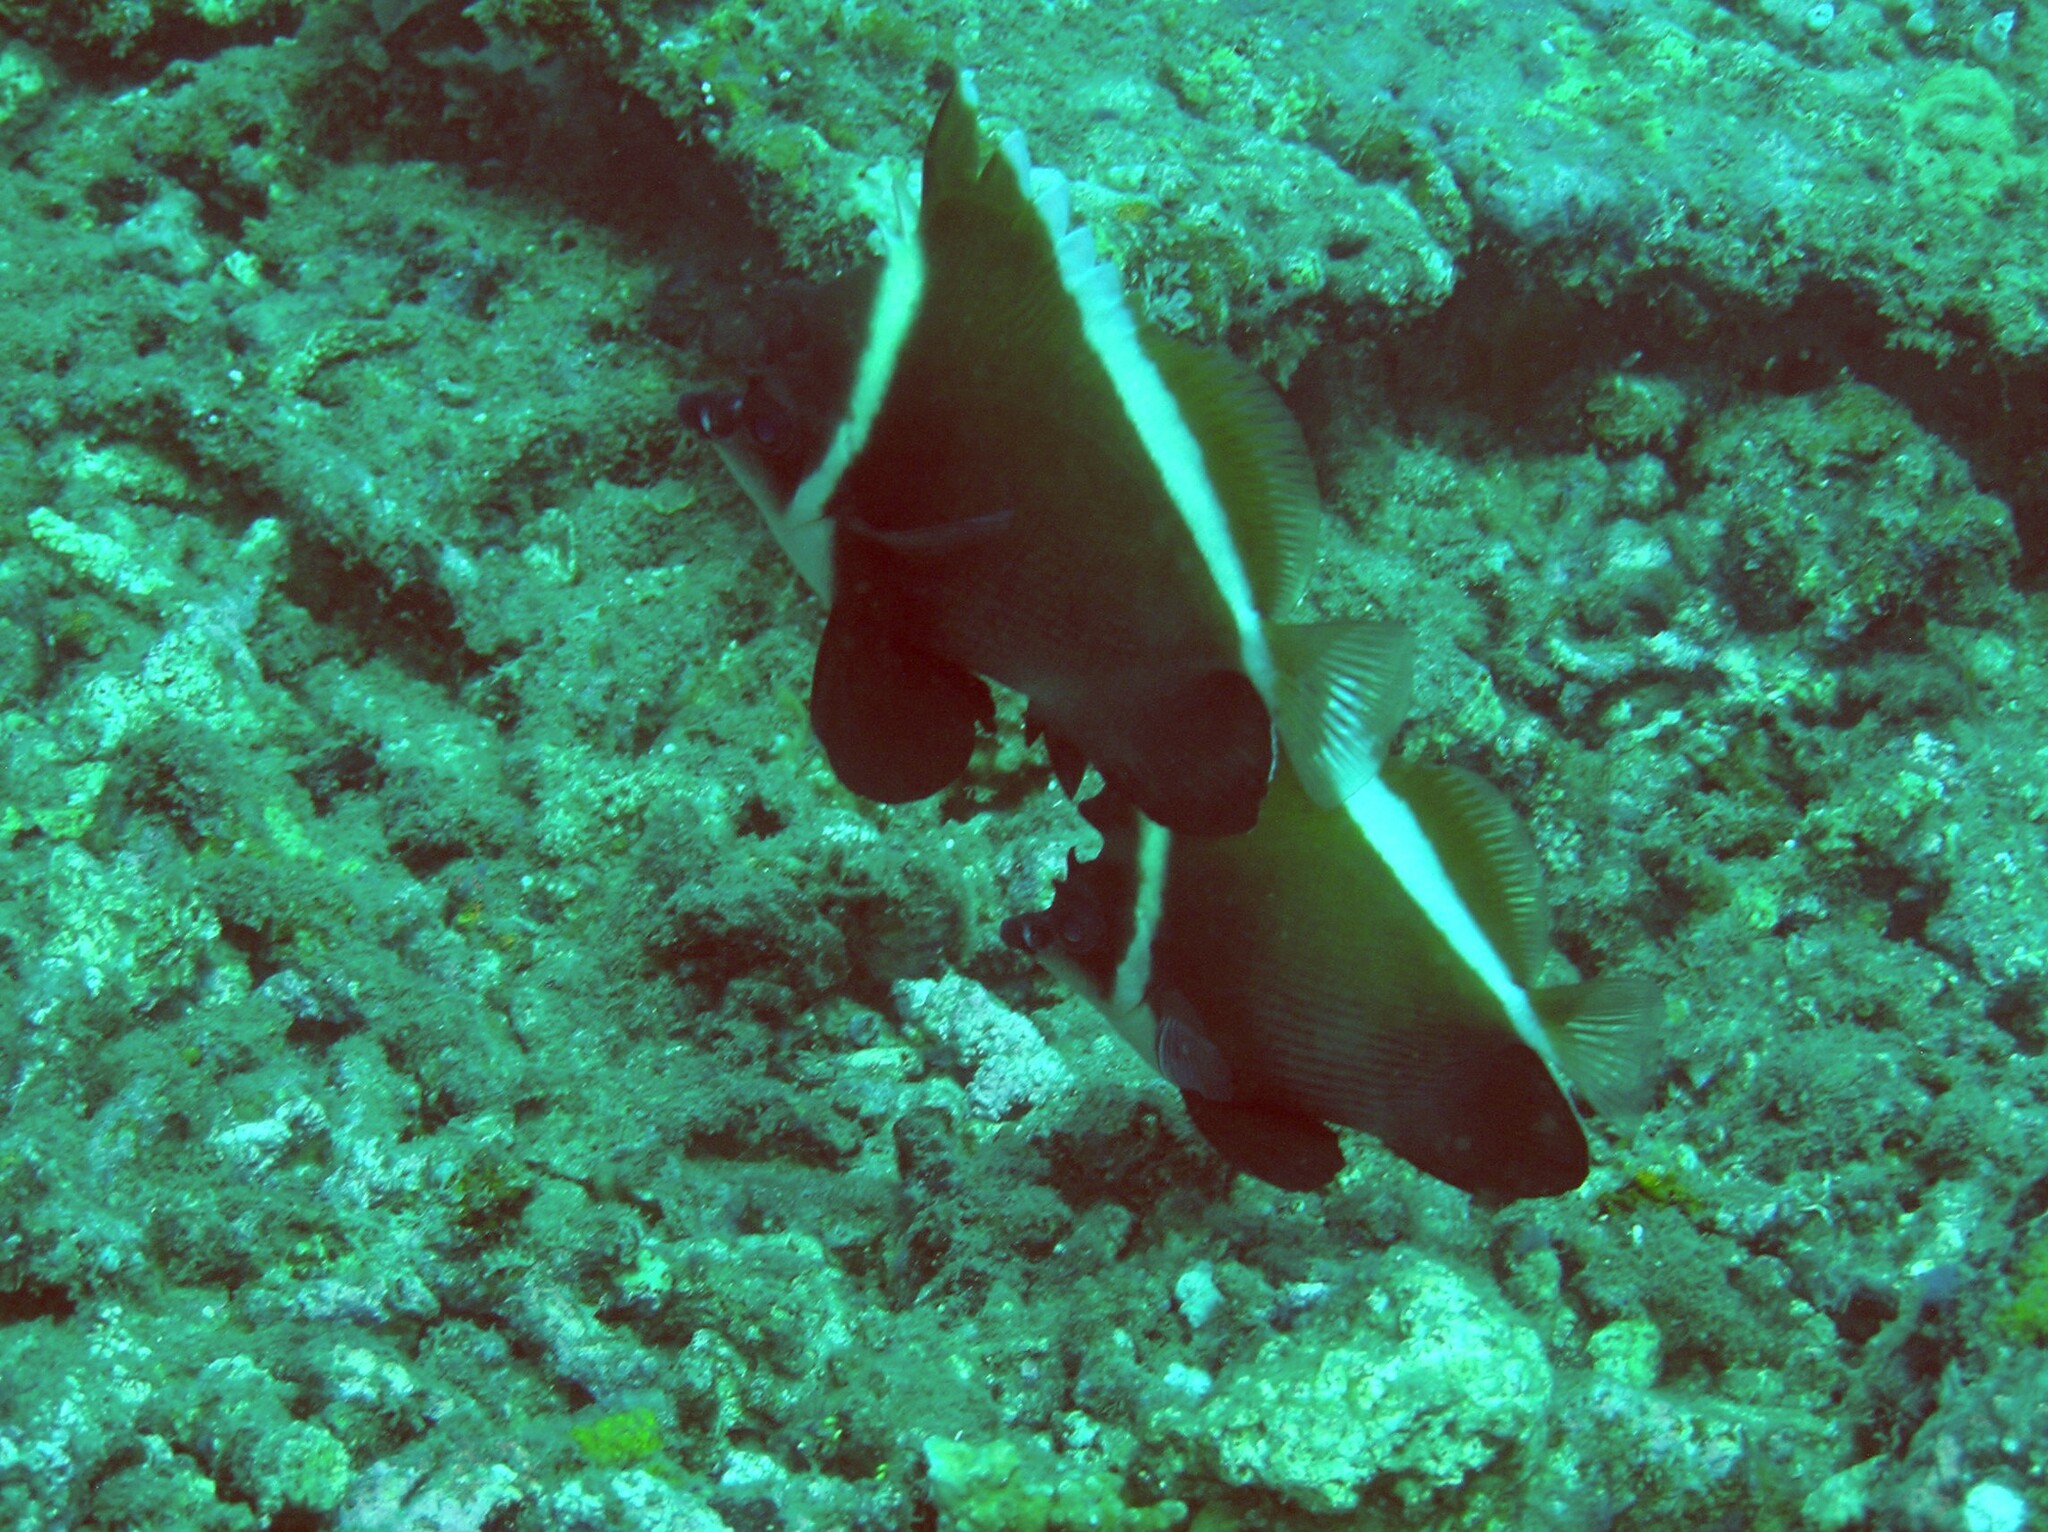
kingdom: Animalia
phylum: Chordata
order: Perciformes
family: Chaetodontidae
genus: Heniochus
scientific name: Heniochus varius
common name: Horned bannerfish
